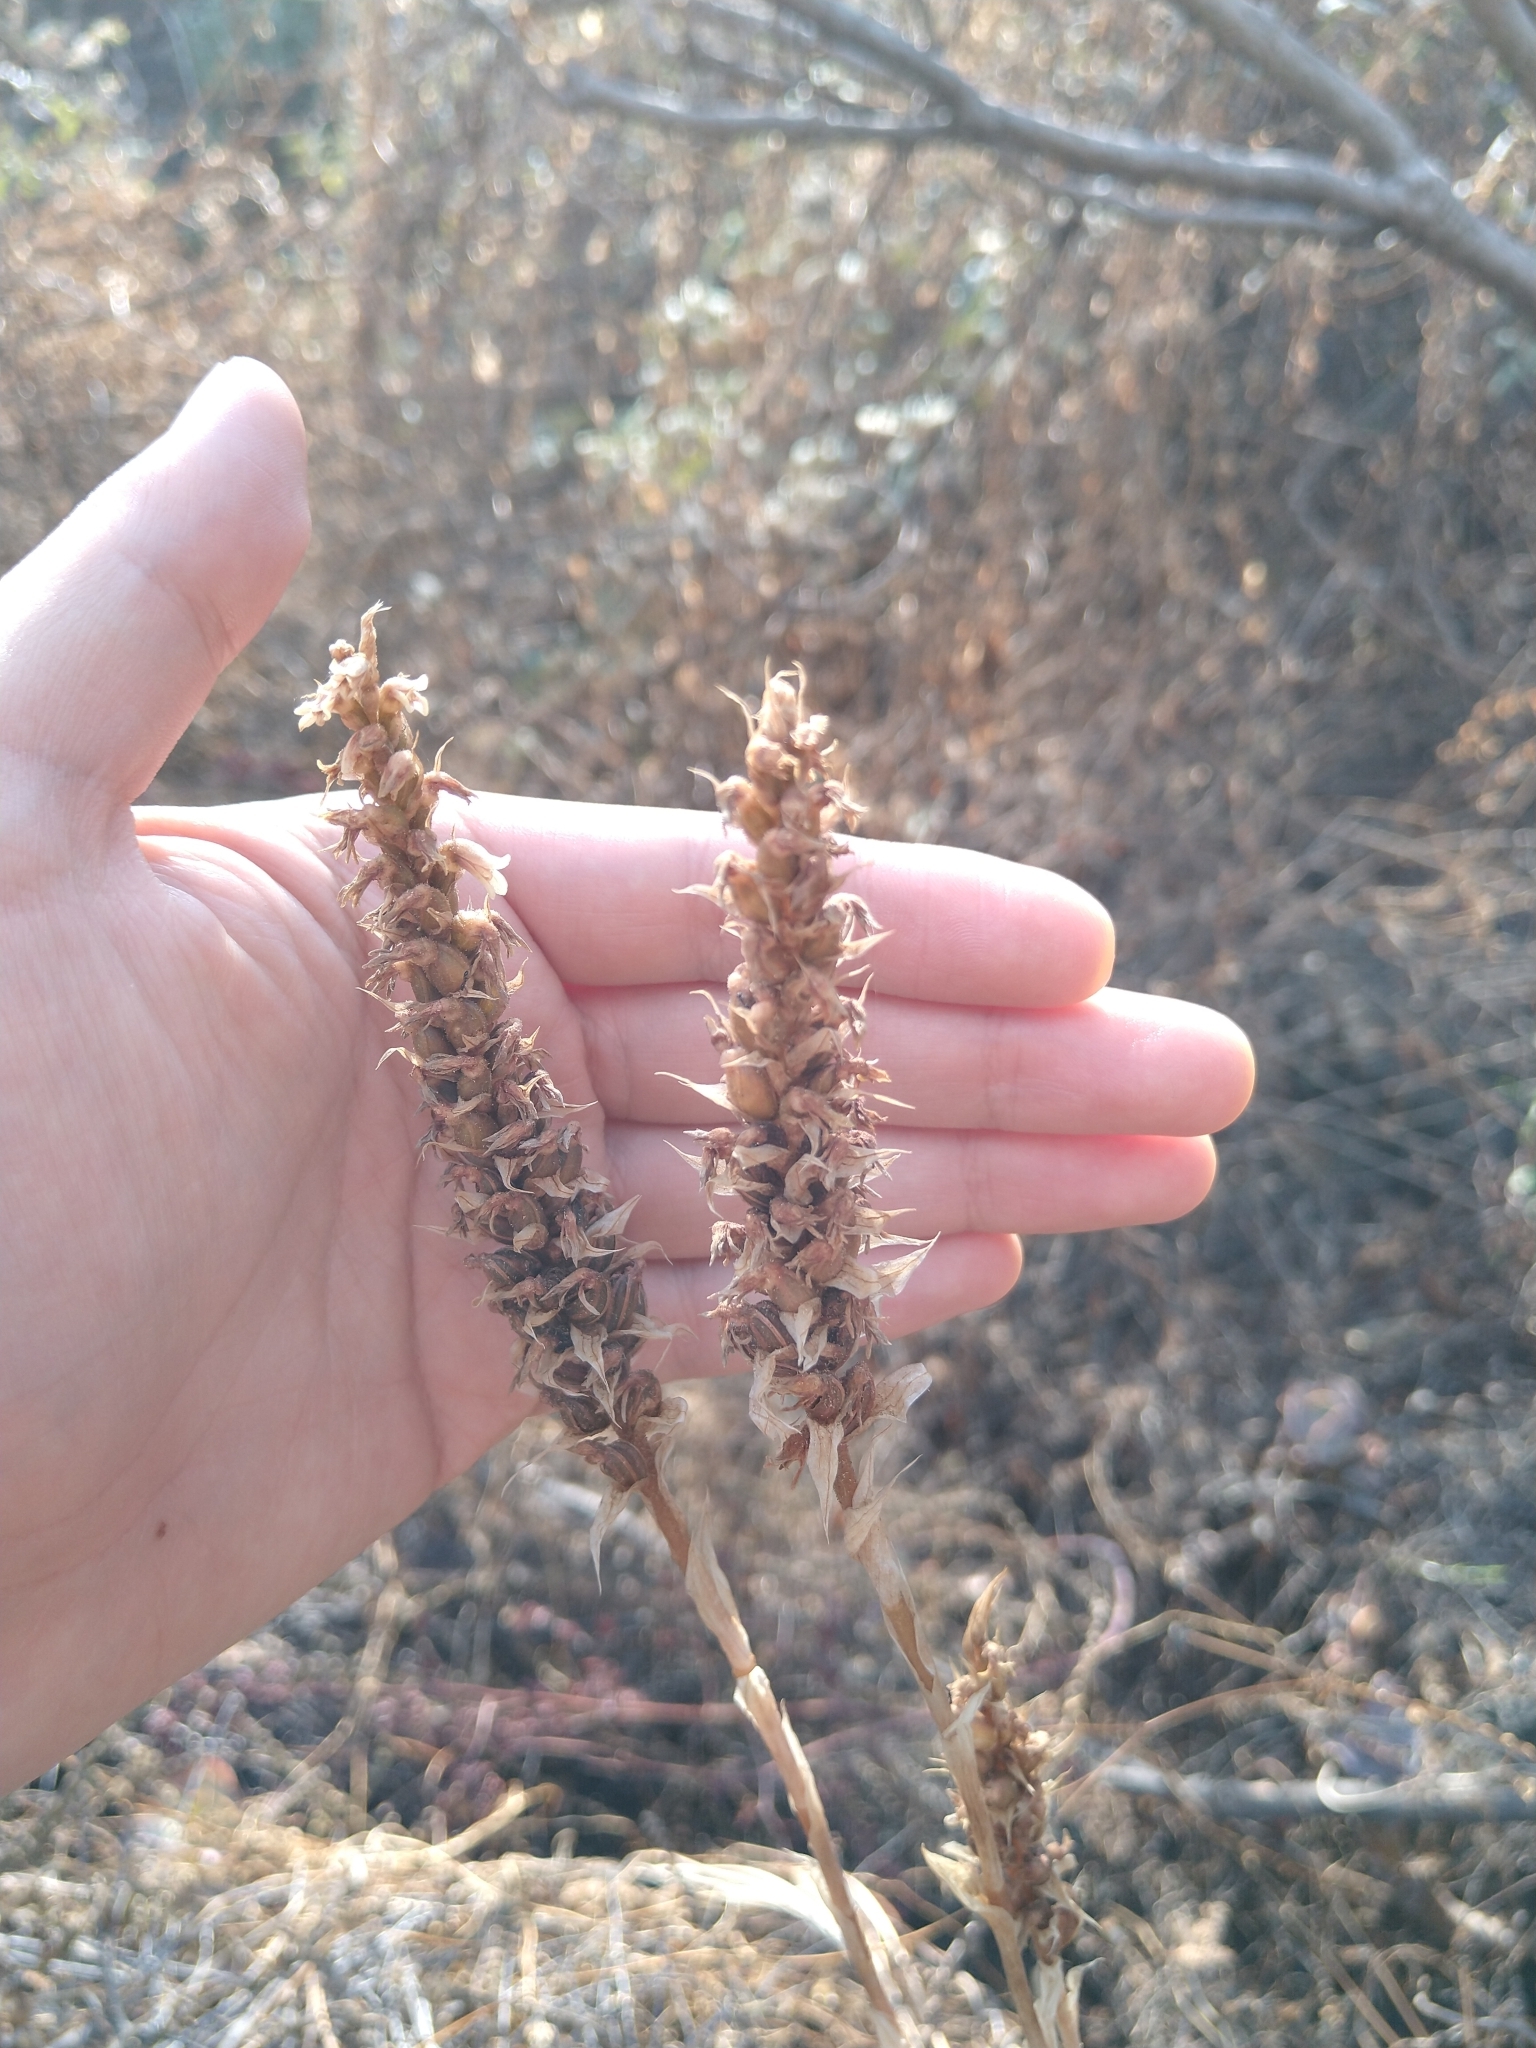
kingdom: Plantae
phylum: Tracheophyta
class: Liliopsida
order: Asparagales
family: Orchidaceae
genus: Aulosepalum
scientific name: Aulosepalum pyramidale
